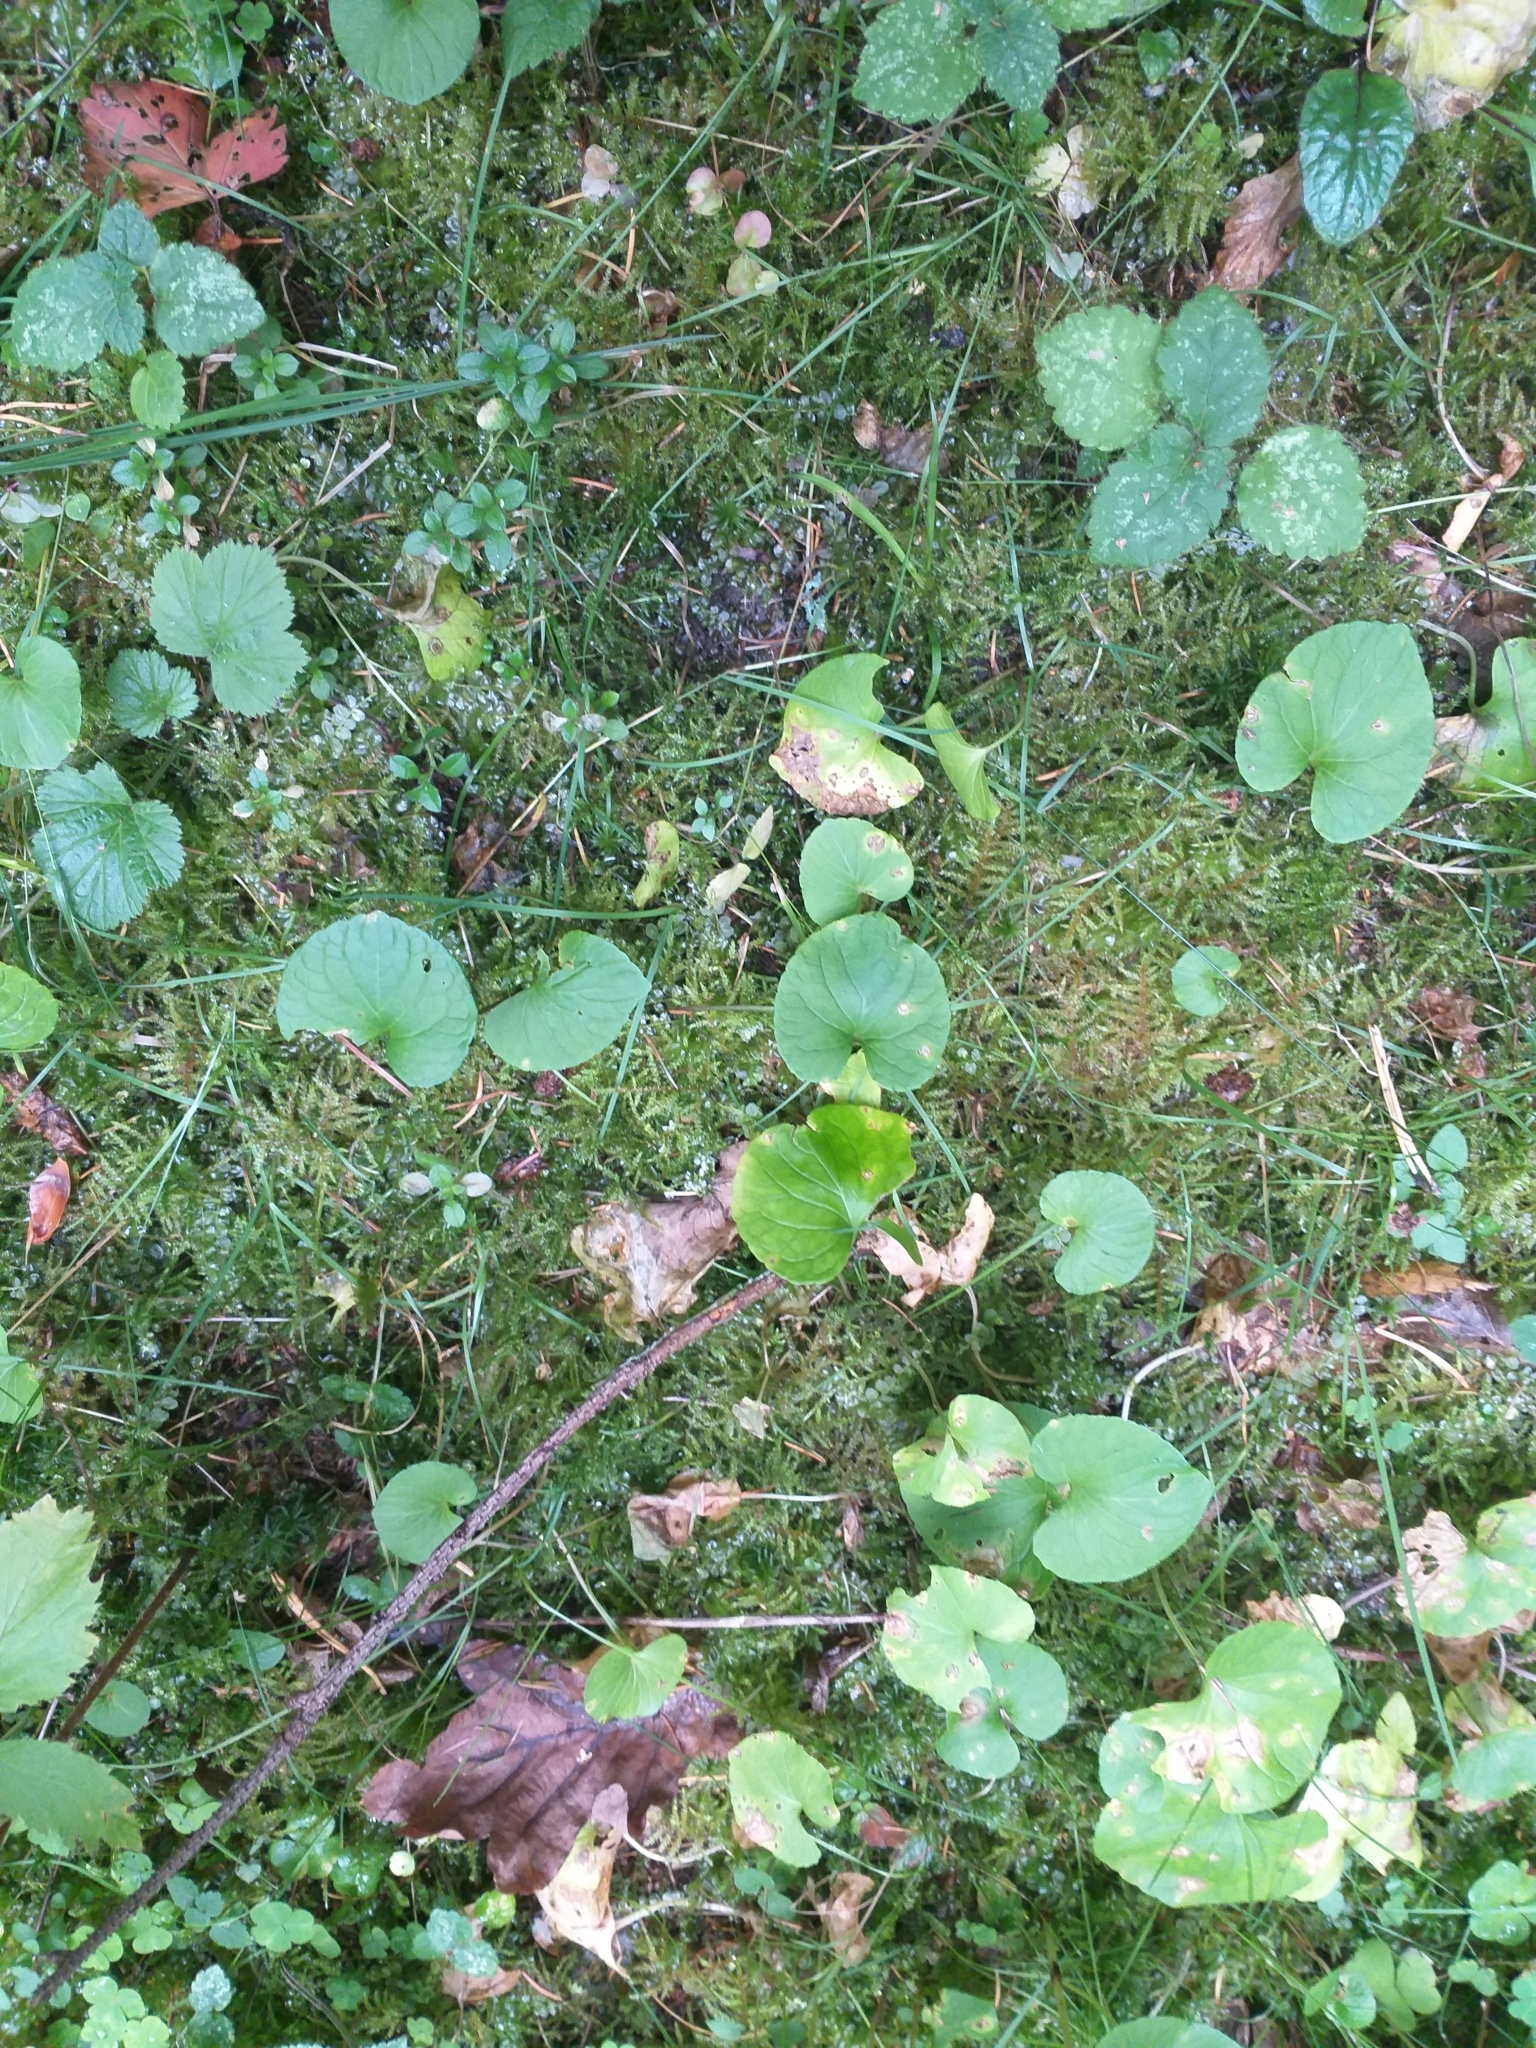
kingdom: Plantae
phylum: Tracheophyta
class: Magnoliopsida
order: Malpighiales
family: Violaceae
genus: Viola
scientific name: Viola epipsila
